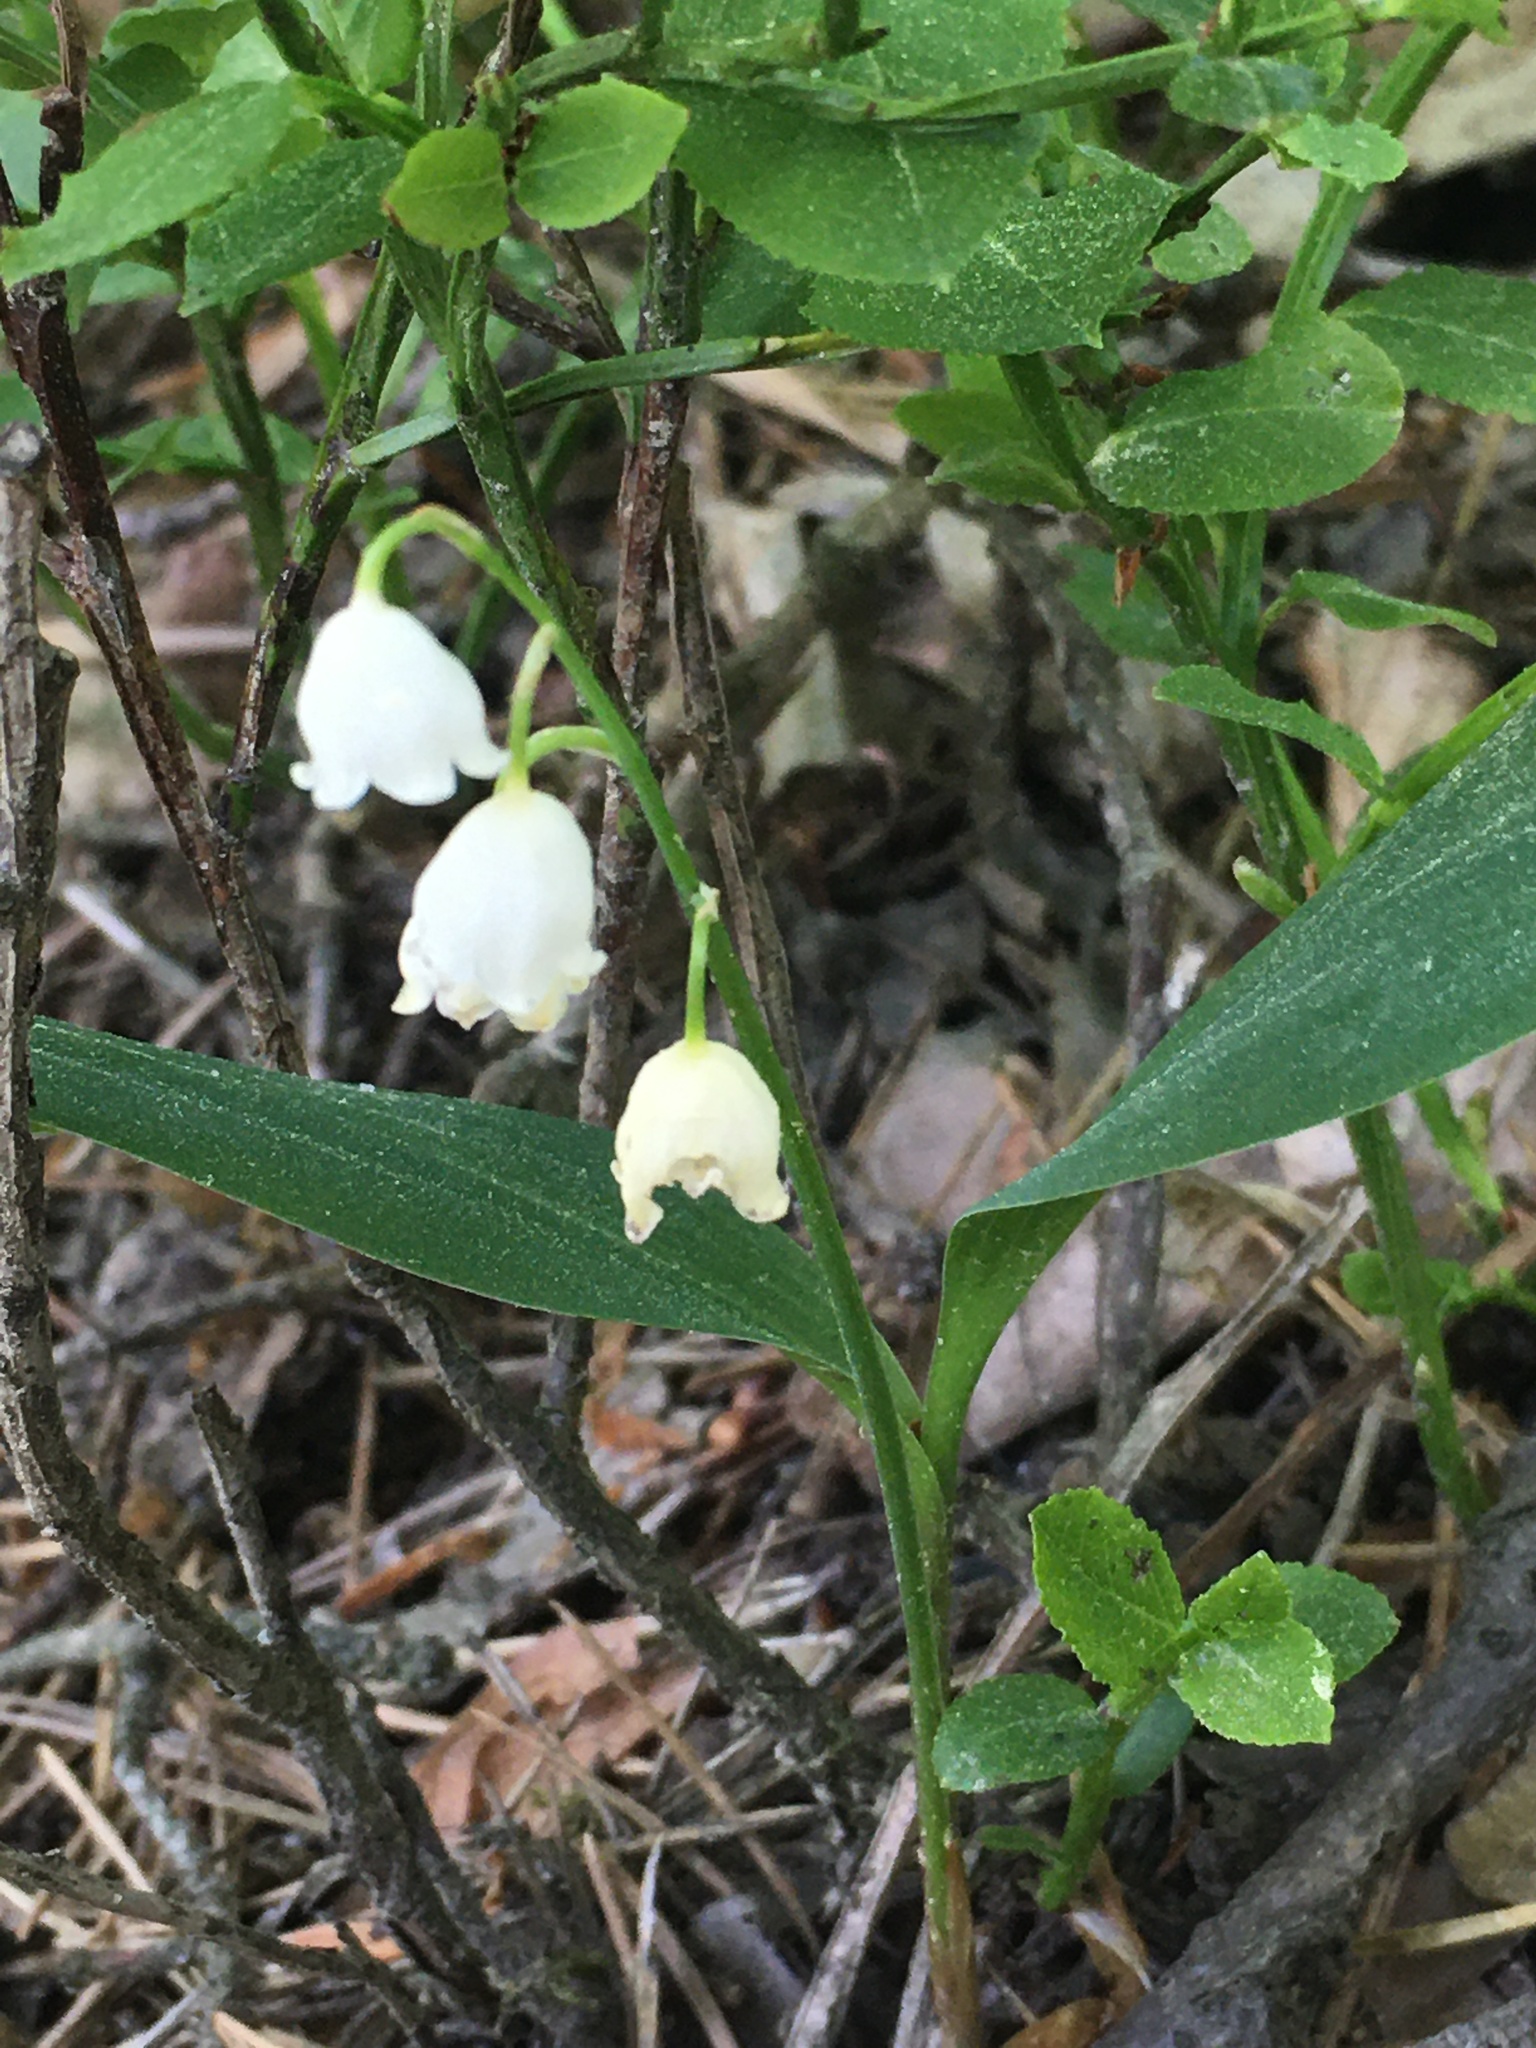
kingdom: Plantae
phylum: Tracheophyta
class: Liliopsida
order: Asparagales
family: Asparagaceae
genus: Convallaria
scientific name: Convallaria majalis
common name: Lily-of-the-valley
